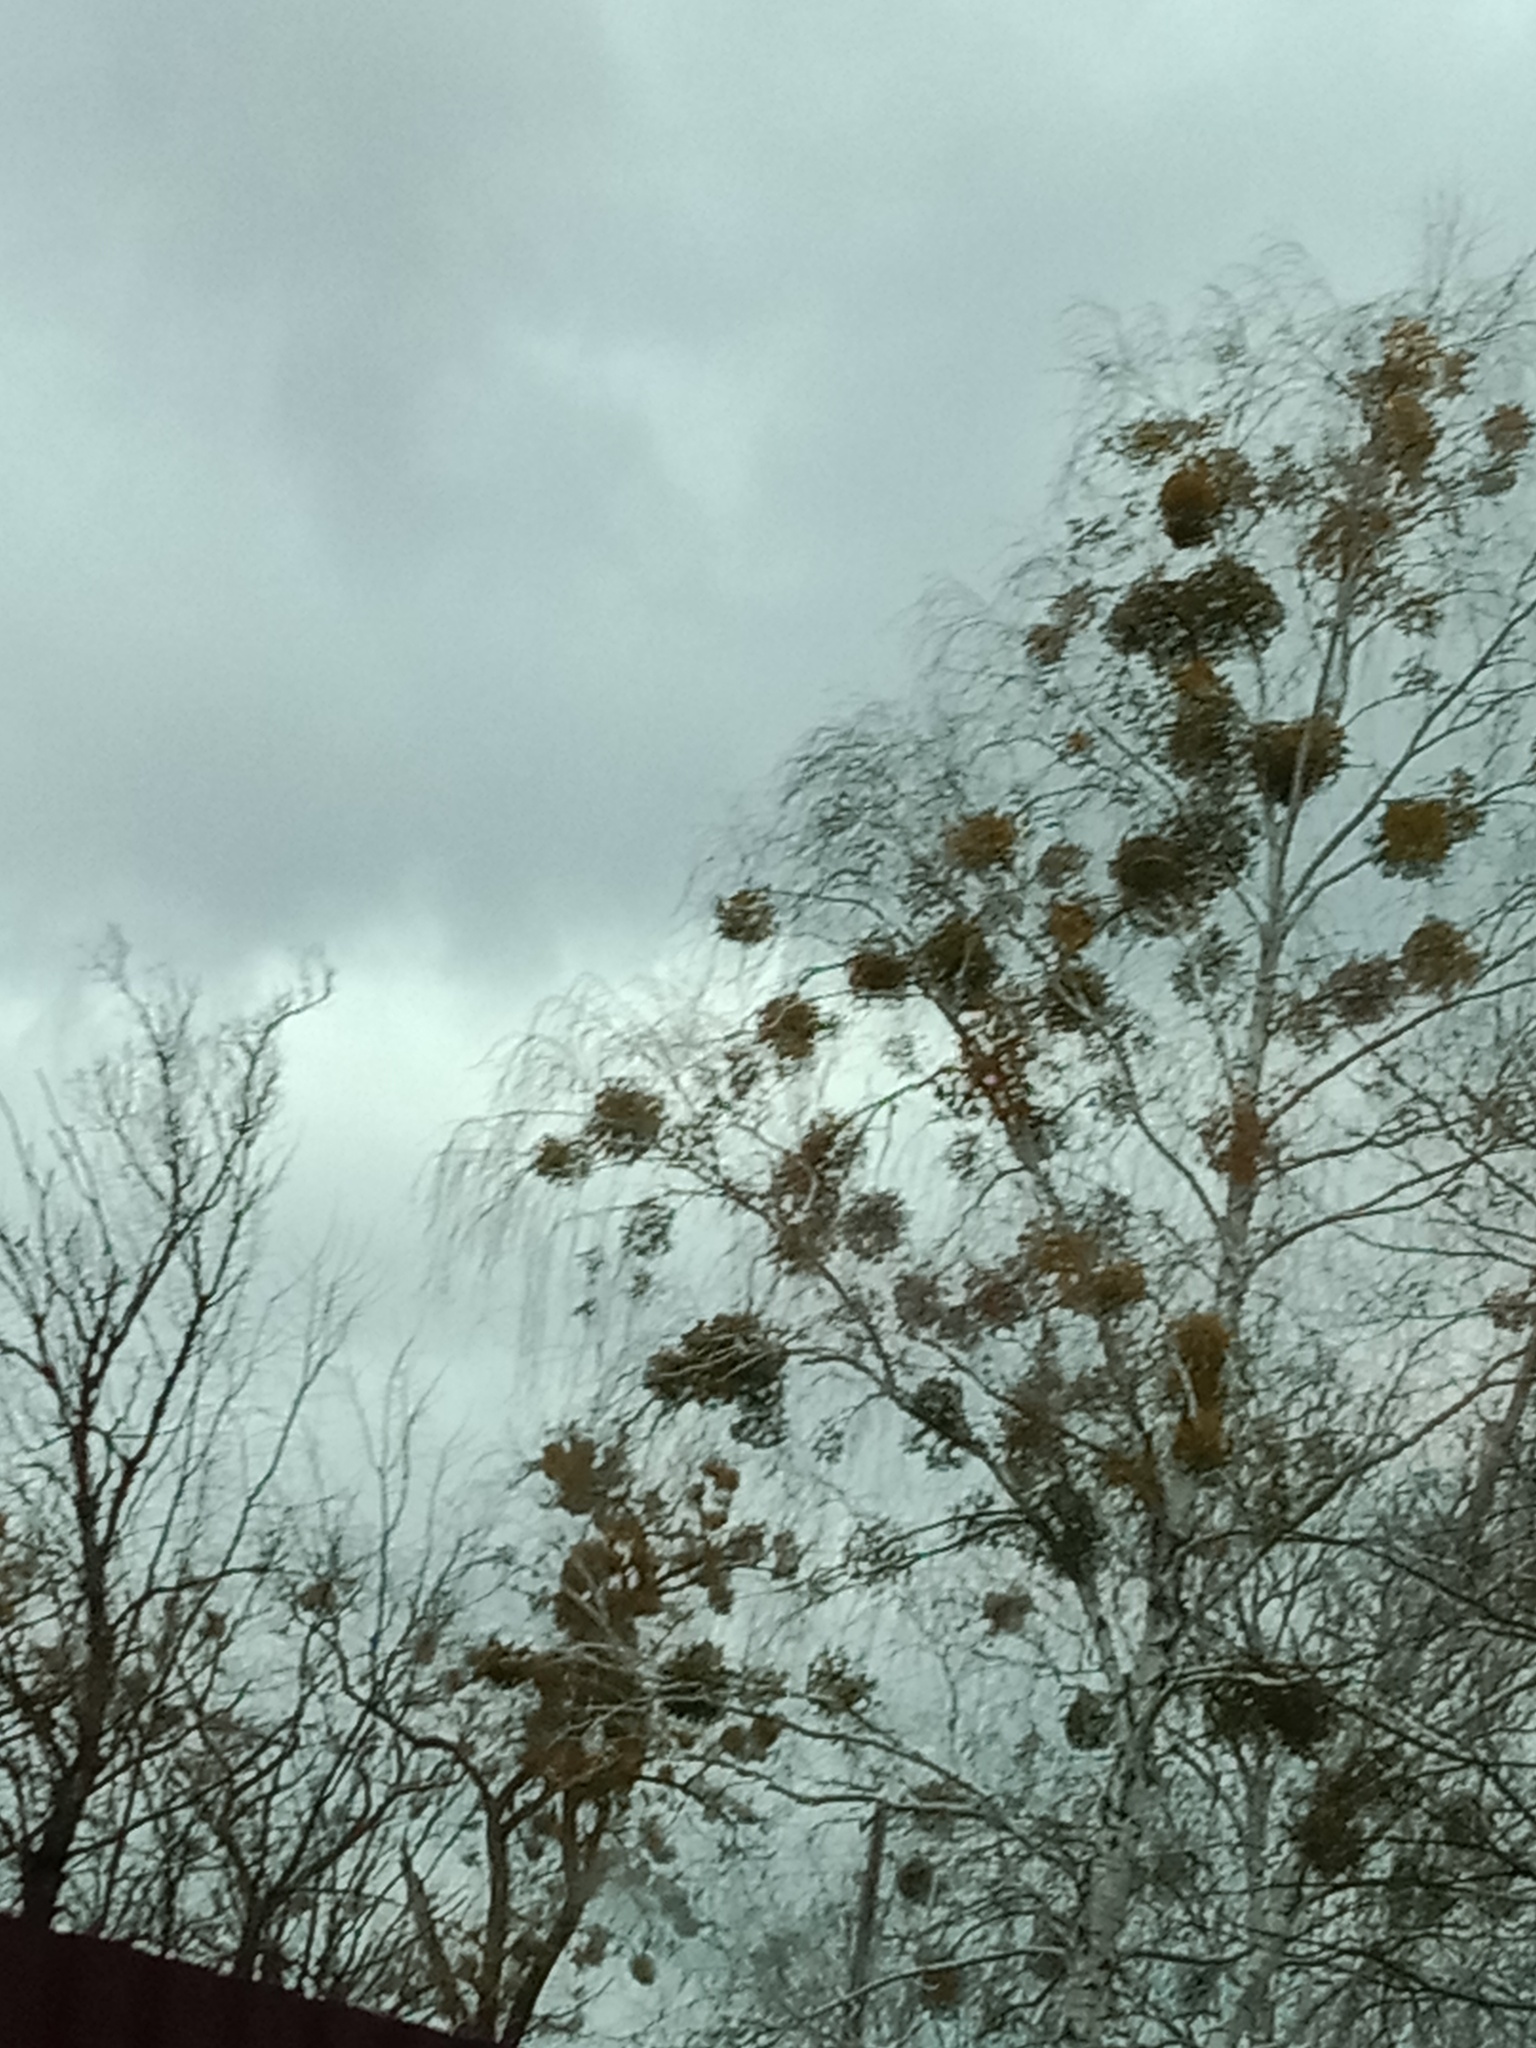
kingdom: Plantae
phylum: Tracheophyta
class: Magnoliopsida
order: Santalales
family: Viscaceae
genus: Viscum
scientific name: Viscum album
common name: Mistletoe
